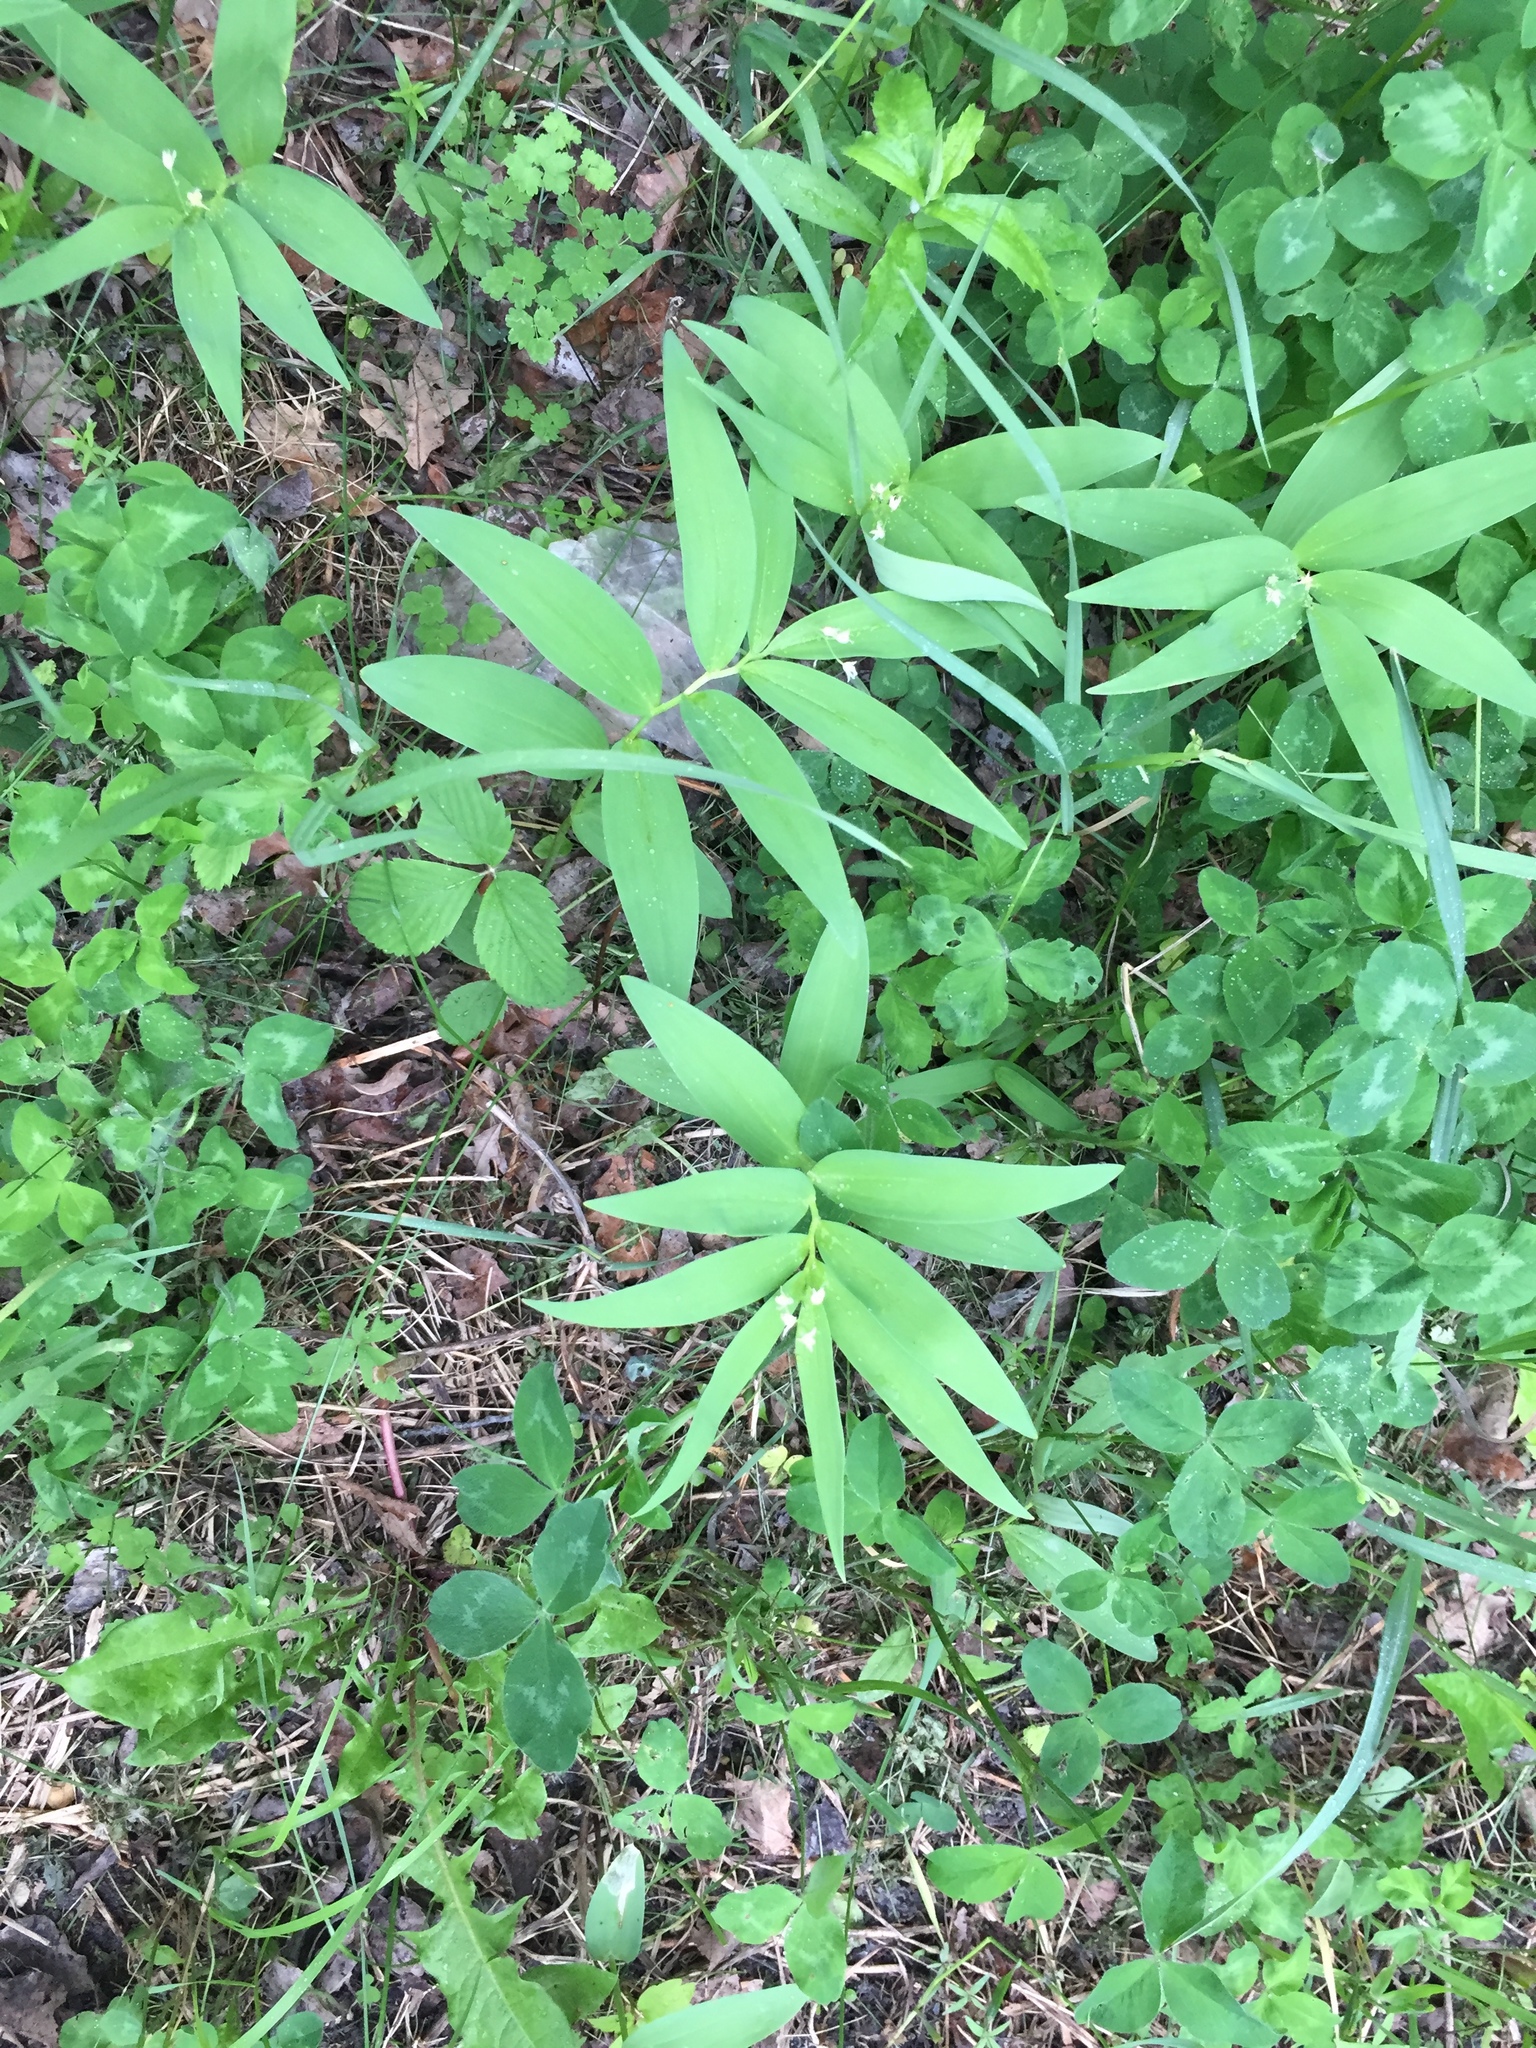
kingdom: Plantae
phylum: Tracheophyta
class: Liliopsida
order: Asparagales
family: Asparagaceae
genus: Maianthemum
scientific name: Maianthemum stellatum
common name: Little false solomon's seal
